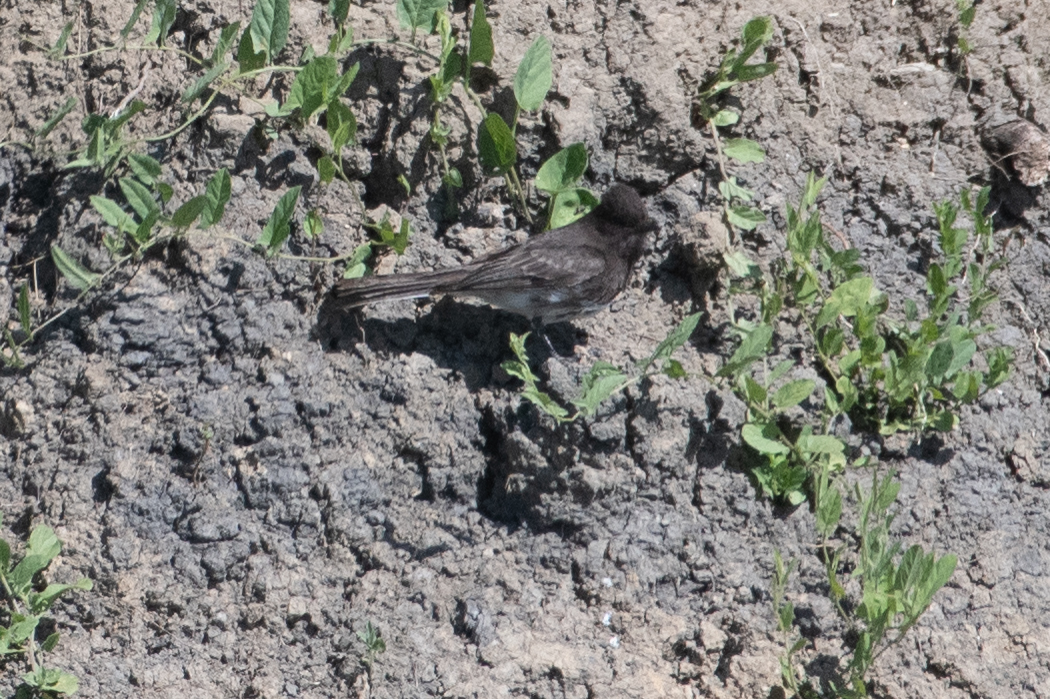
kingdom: Animalia
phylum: Chordata
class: Aves
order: Passeriformes
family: Tyrannidae
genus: Sayornis
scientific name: Sayornis nigricans
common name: Black phoebe
